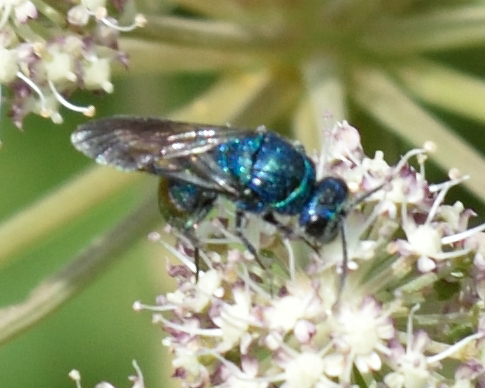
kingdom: Animalia
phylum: Arthropoda
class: Insecta
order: Hymenoptera
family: Chrysididae
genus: Chrysis
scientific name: Chrysis fulgida
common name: Shimmering ruby-tail
